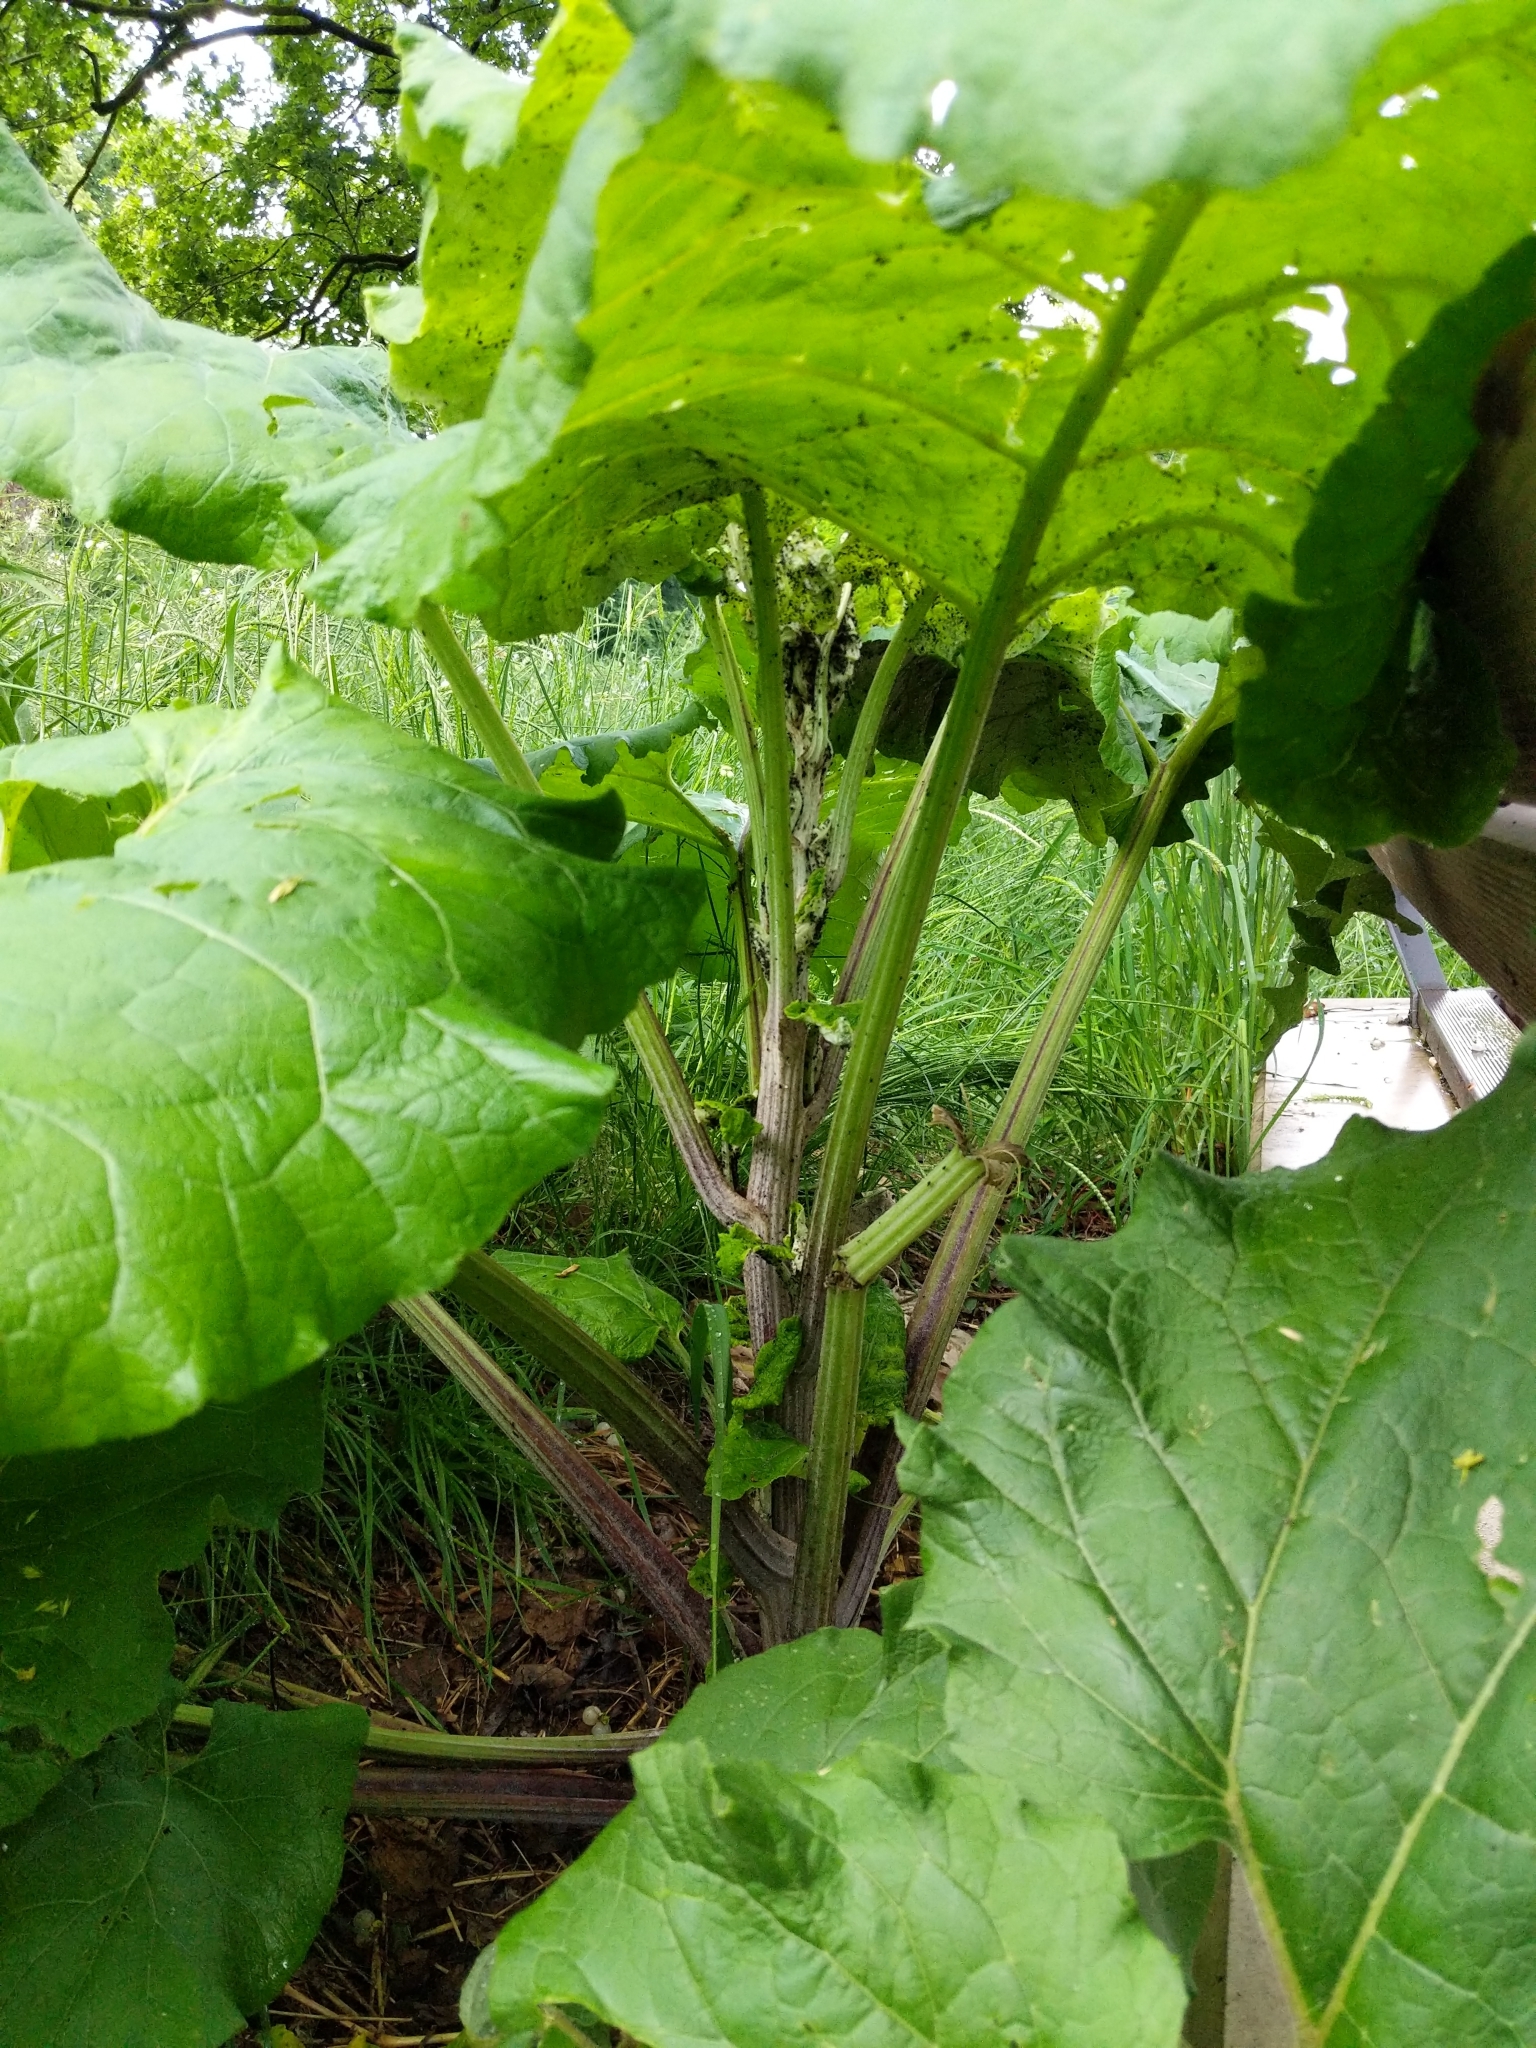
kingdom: Plantae
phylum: Tracheophyta
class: Magnoliopsida
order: Asterales
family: Asteraceae
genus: Arctium
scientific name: Arctium lappa
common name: Greater burdock
